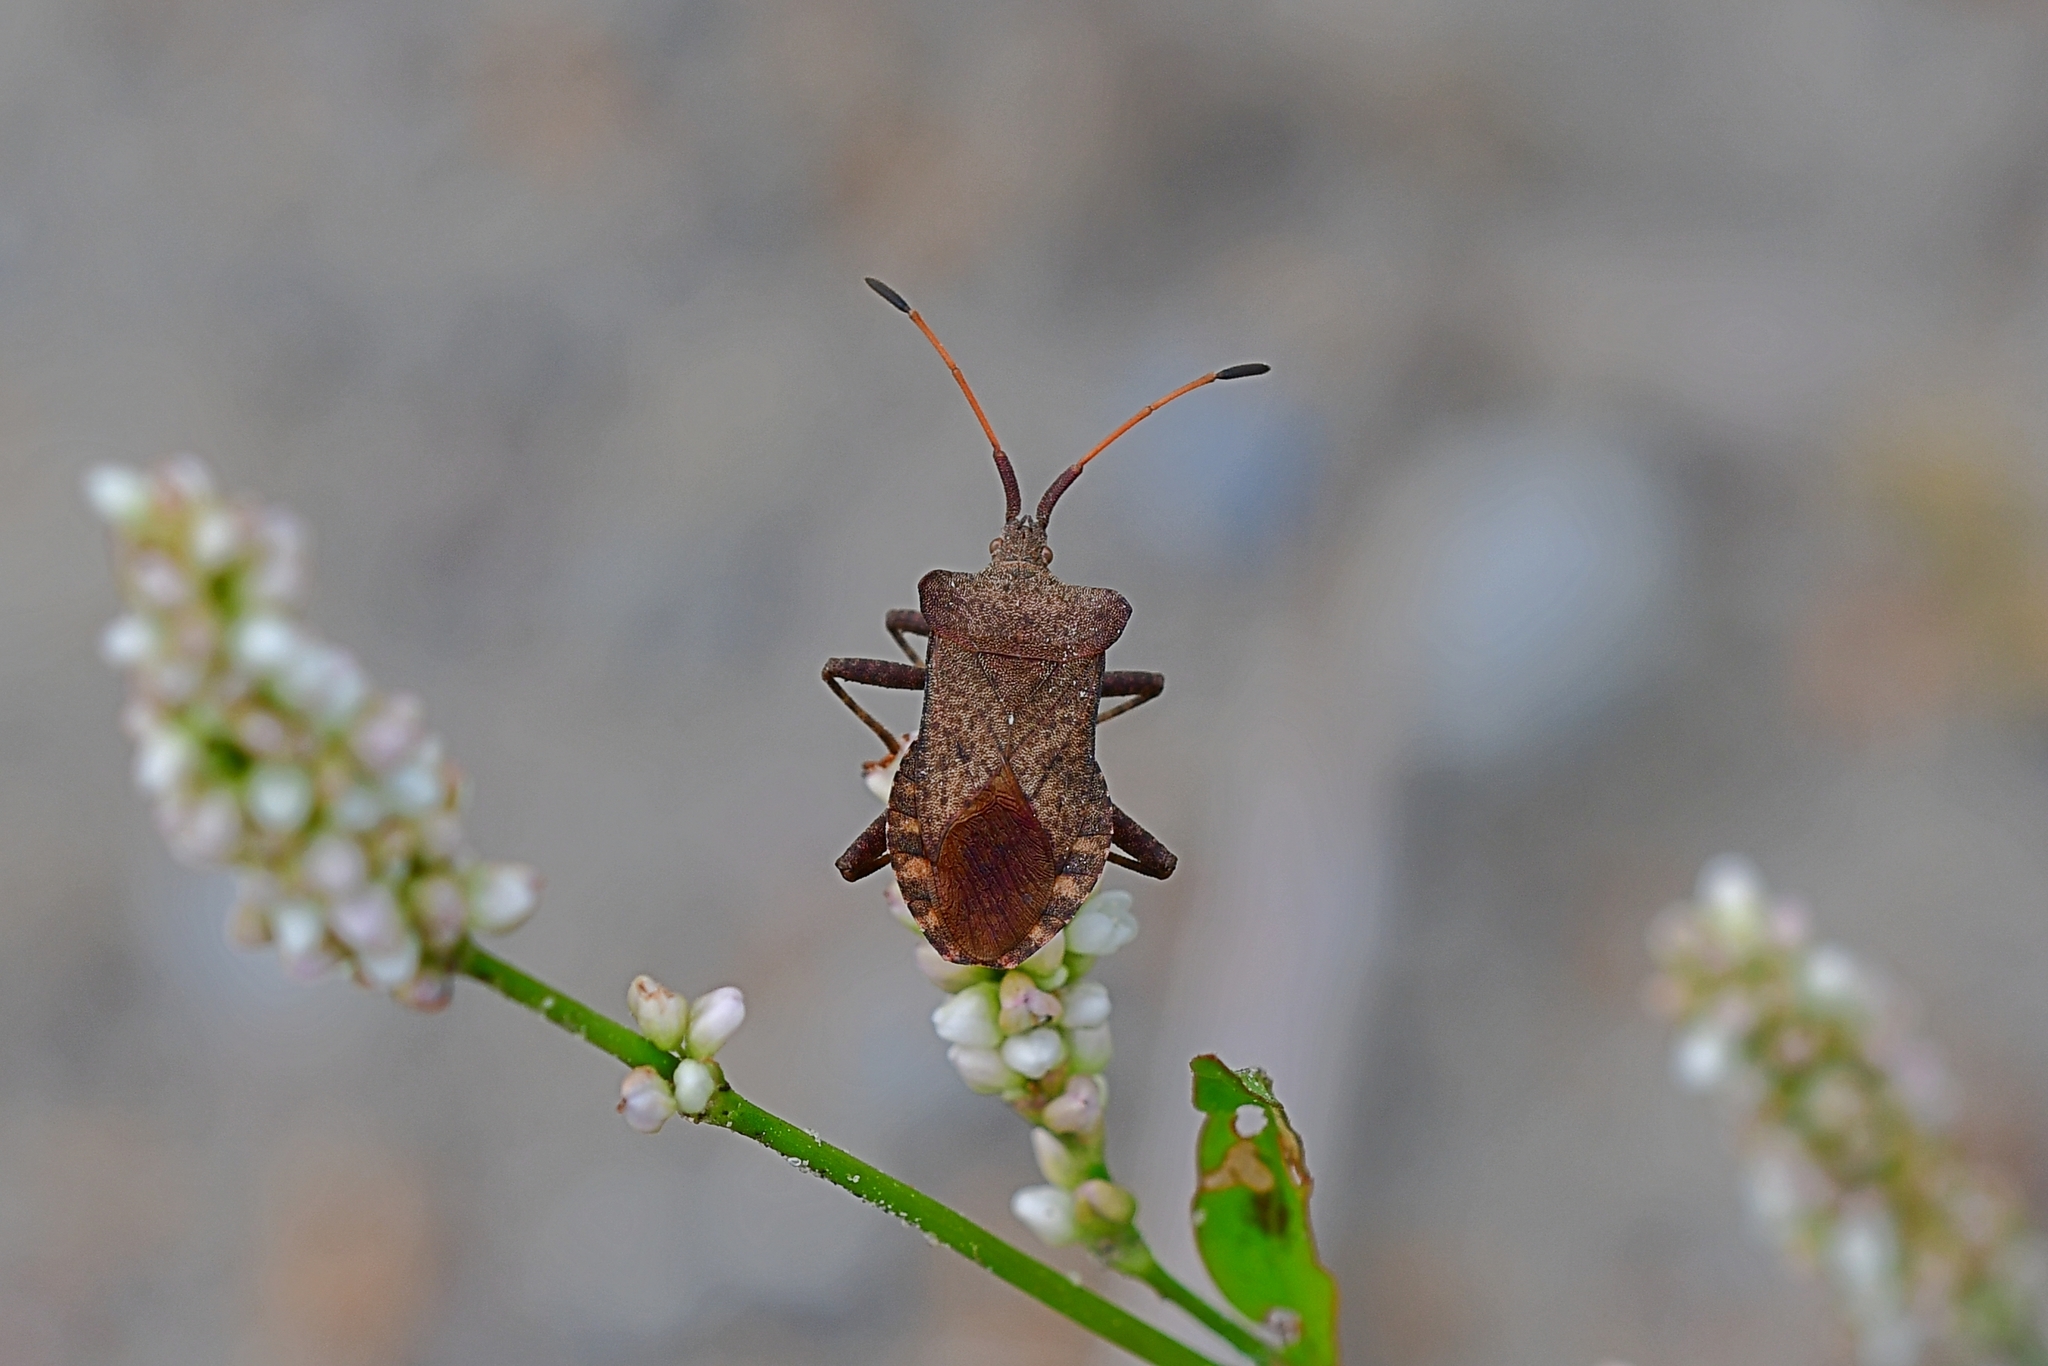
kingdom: Animalia
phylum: Arthropoda
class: Insecta
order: Hemiptera
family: Coreidae
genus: Coreus
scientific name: Coreus marginatus
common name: Dock bug
